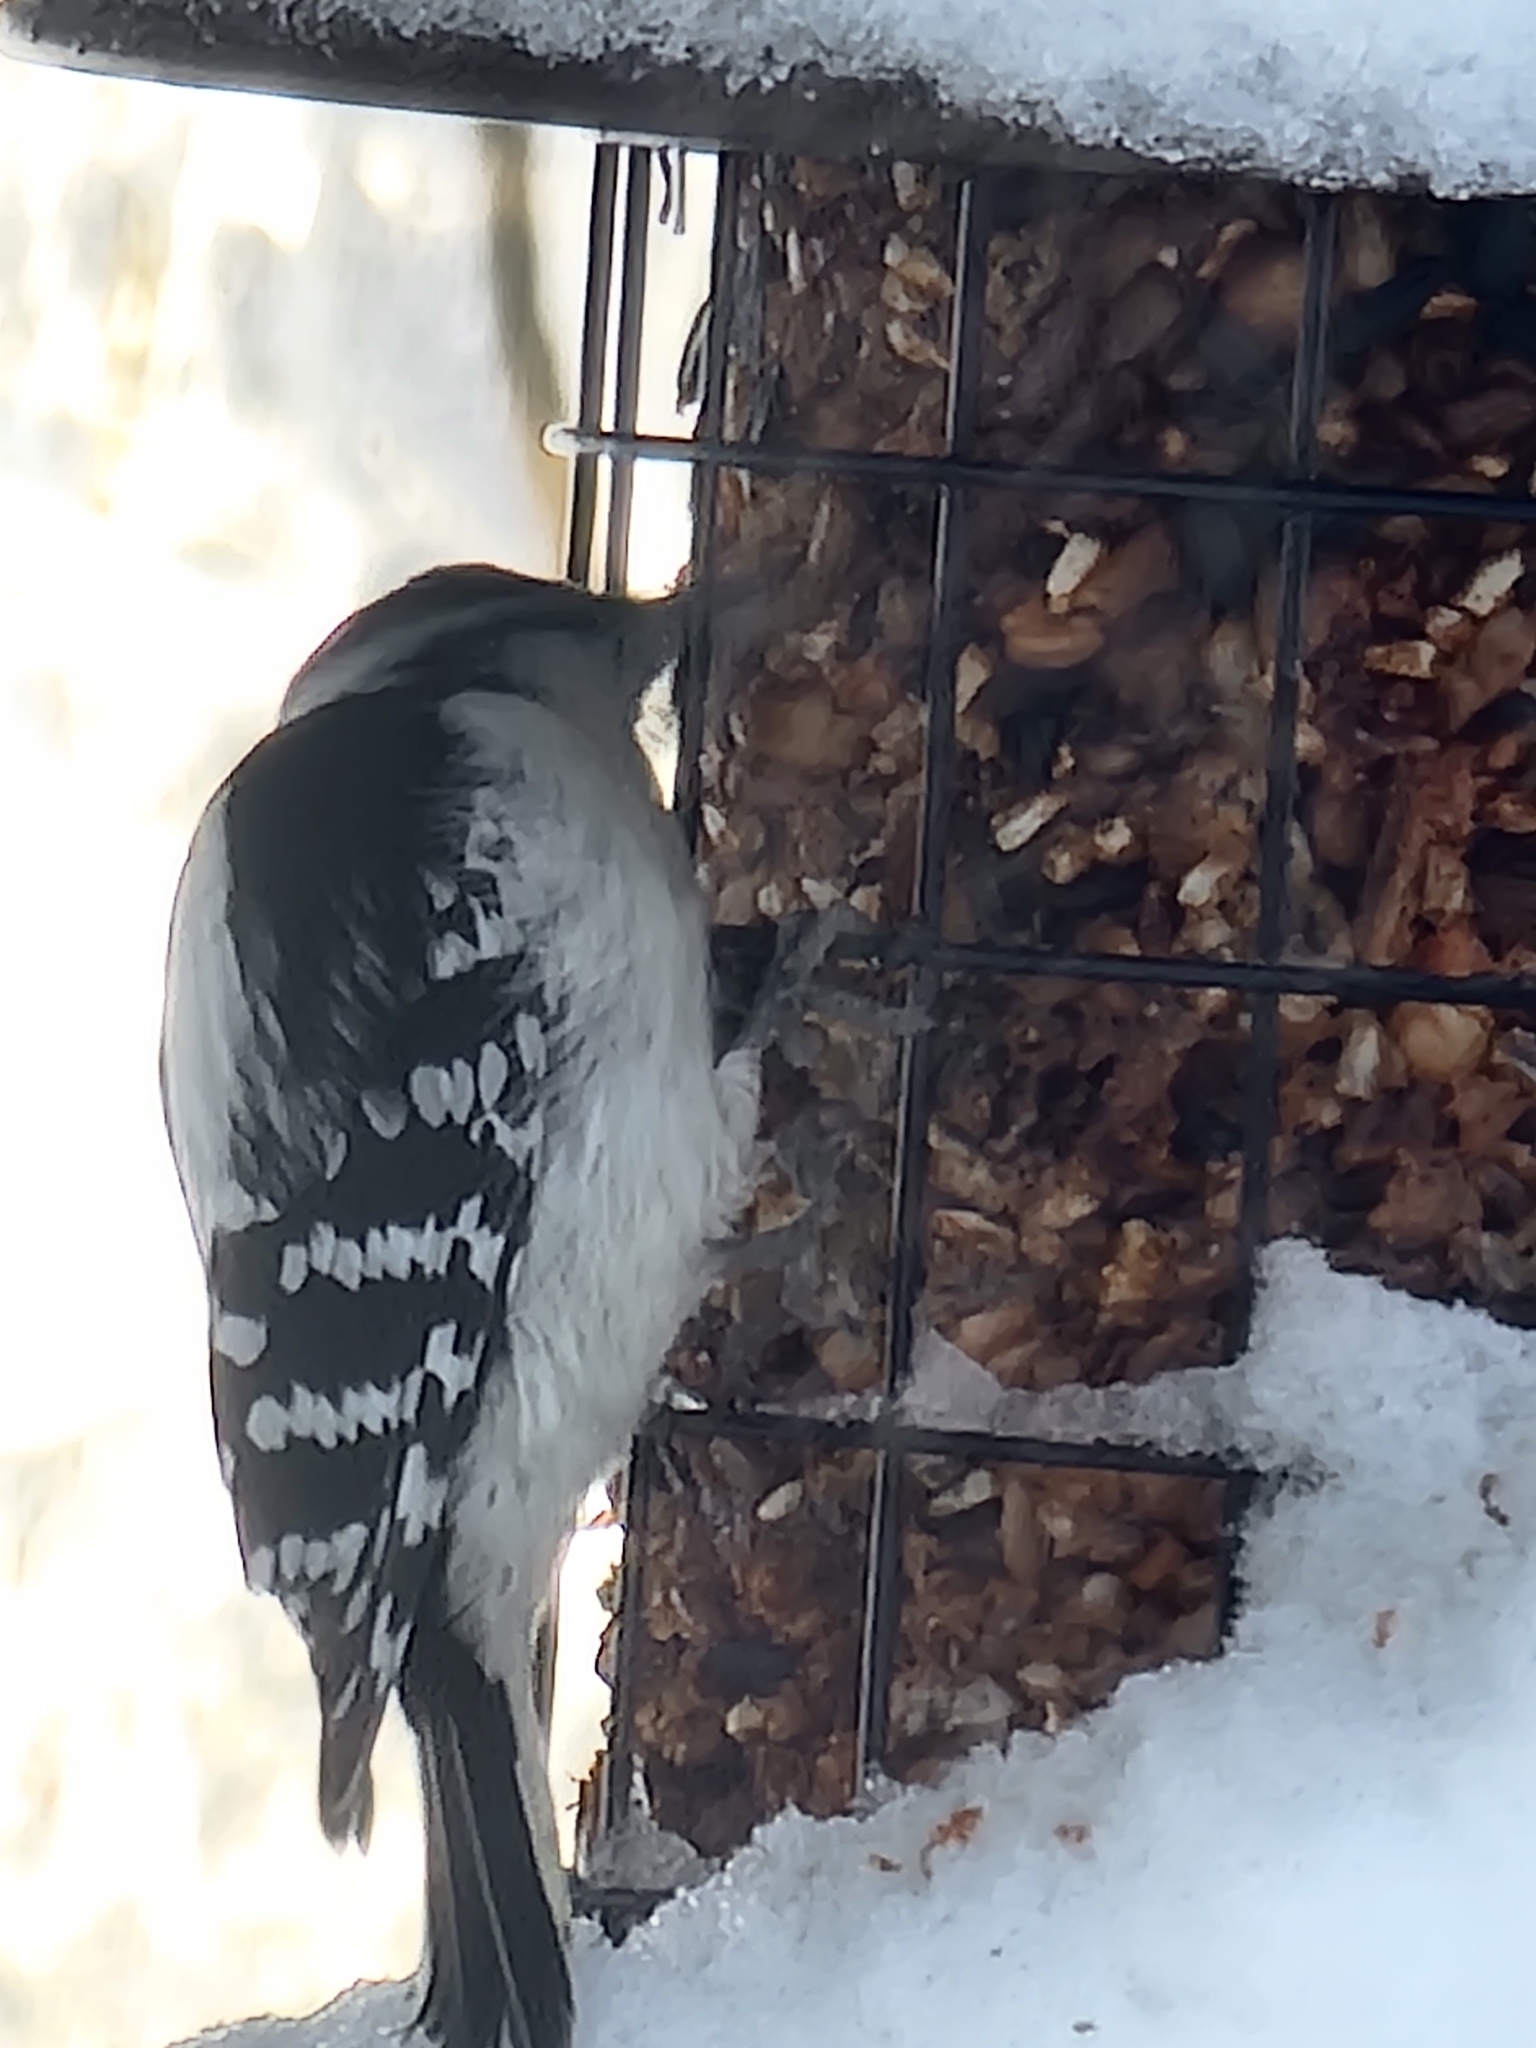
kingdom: Animalia
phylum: Chordata
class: Aves
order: Piciformes
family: Picidae
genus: Dryobates
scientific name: Dryobates pubescens
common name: Downy woodpecker
